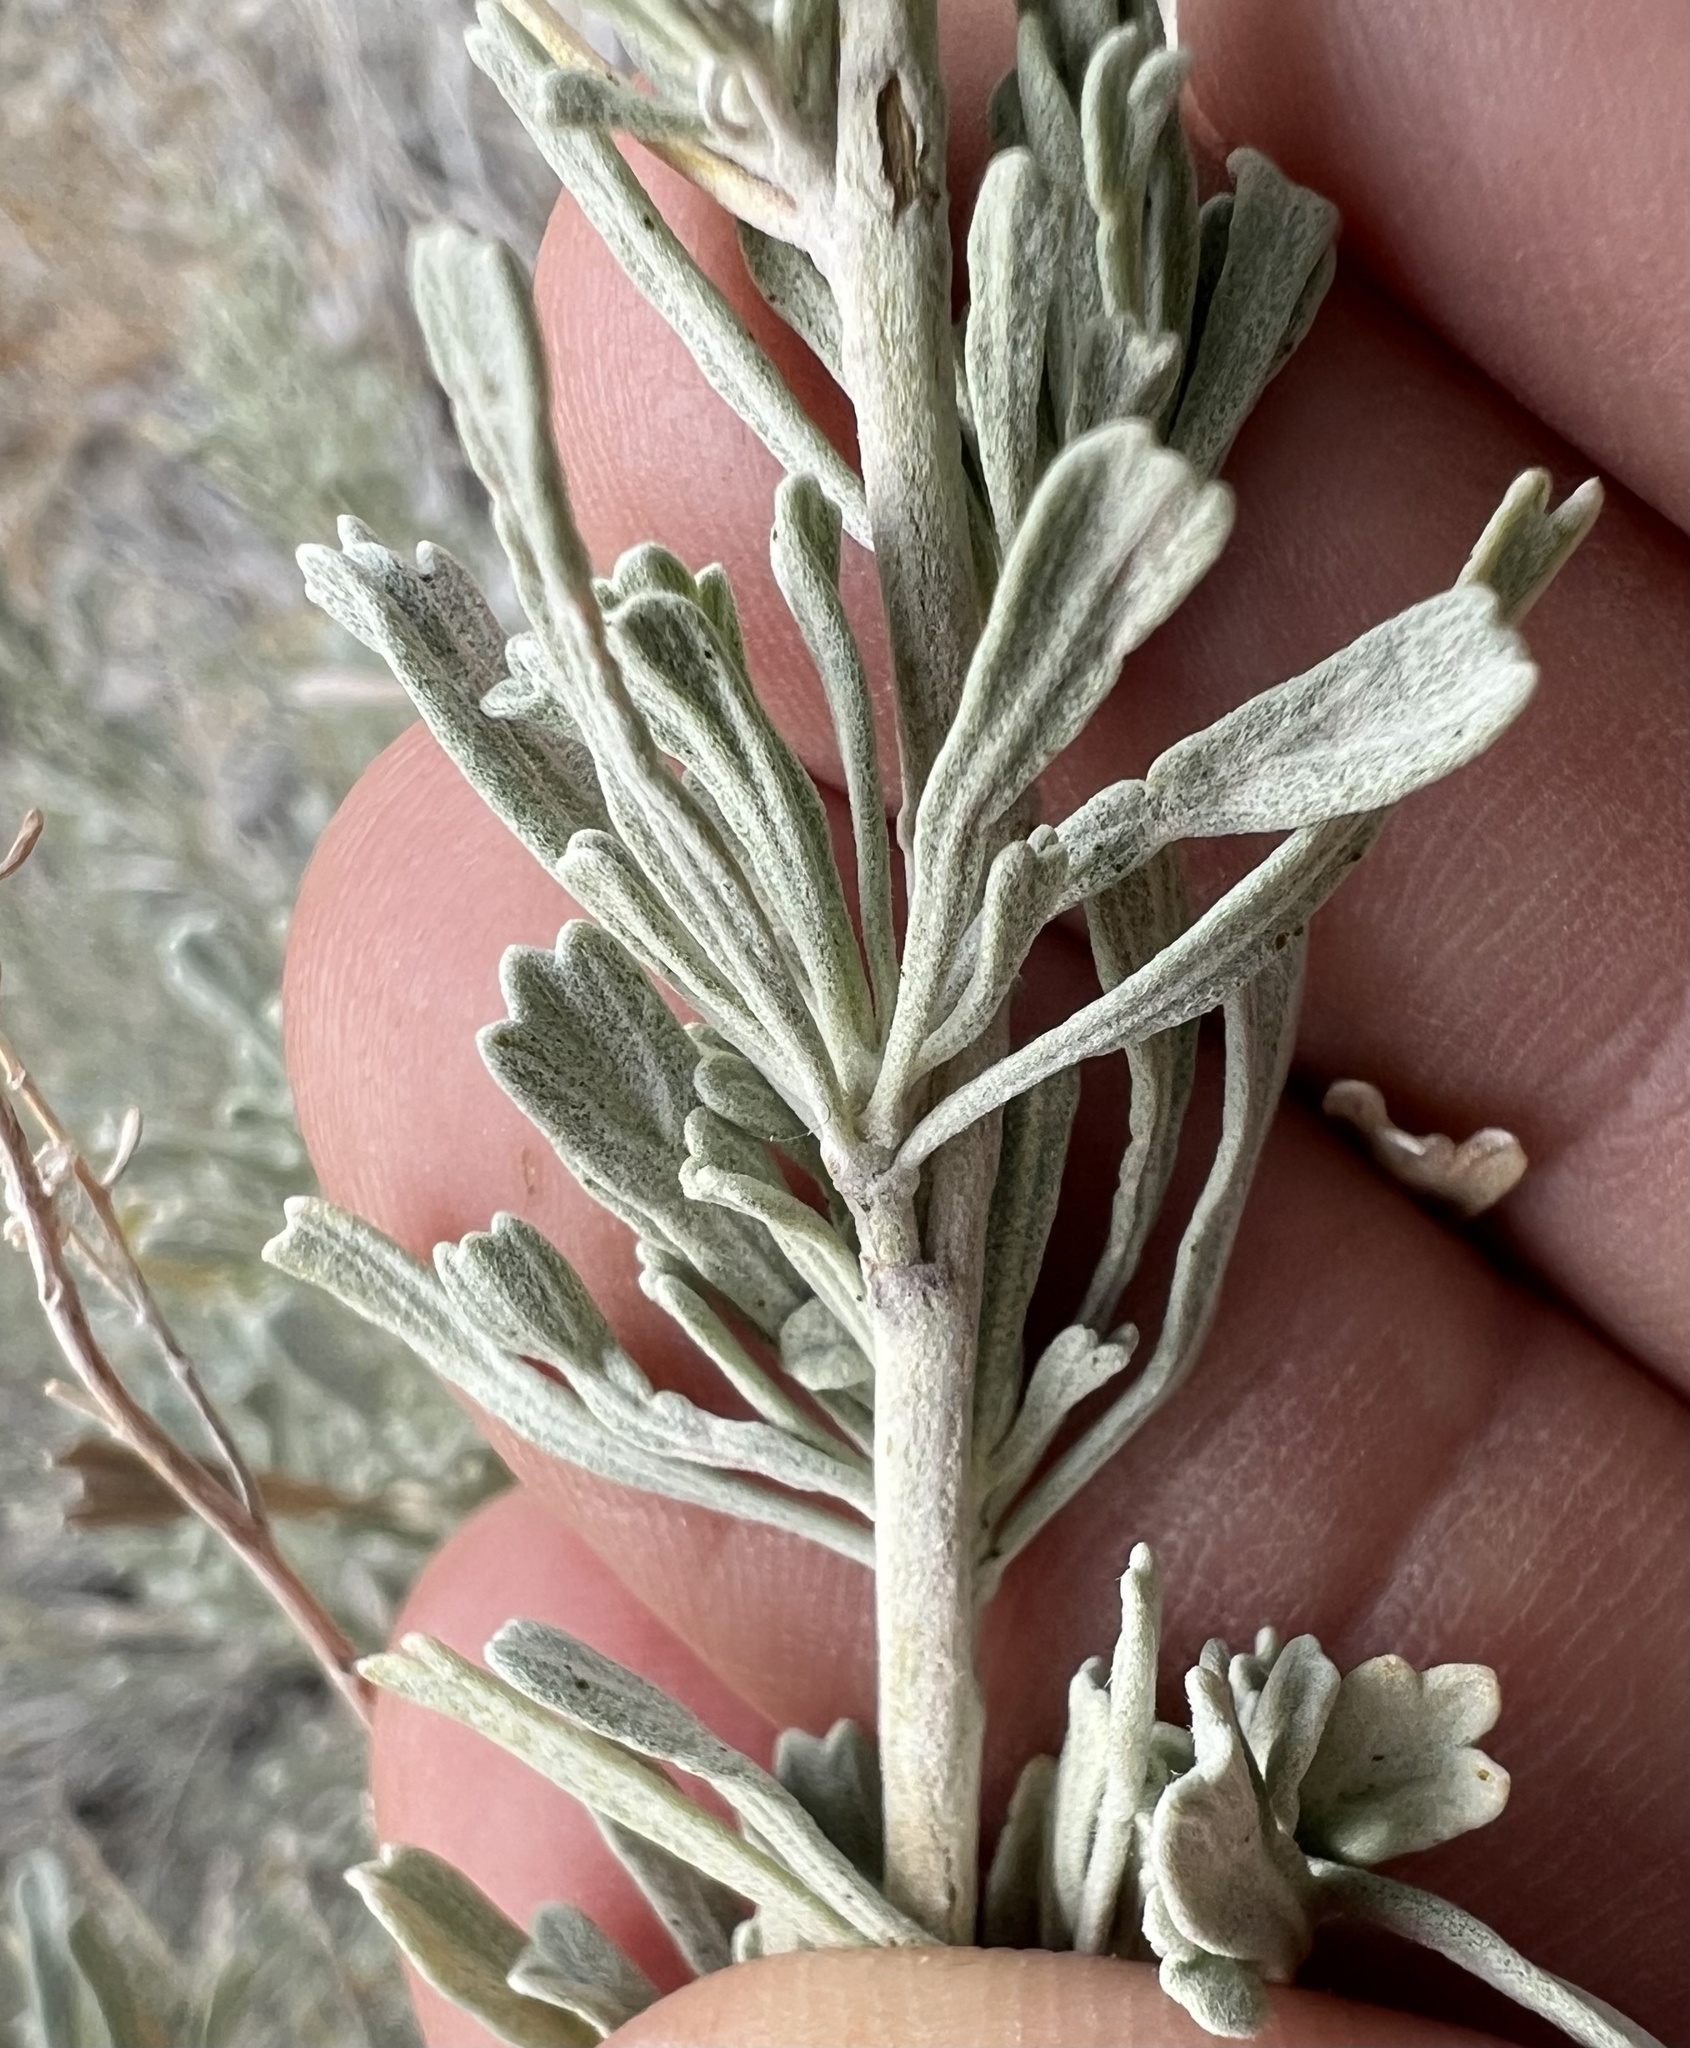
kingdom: Plantae
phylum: Tracheophyta
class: Magnoliopsida
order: Asterales
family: Asteraceae
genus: Artemisia
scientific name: Artemisia tridentata
